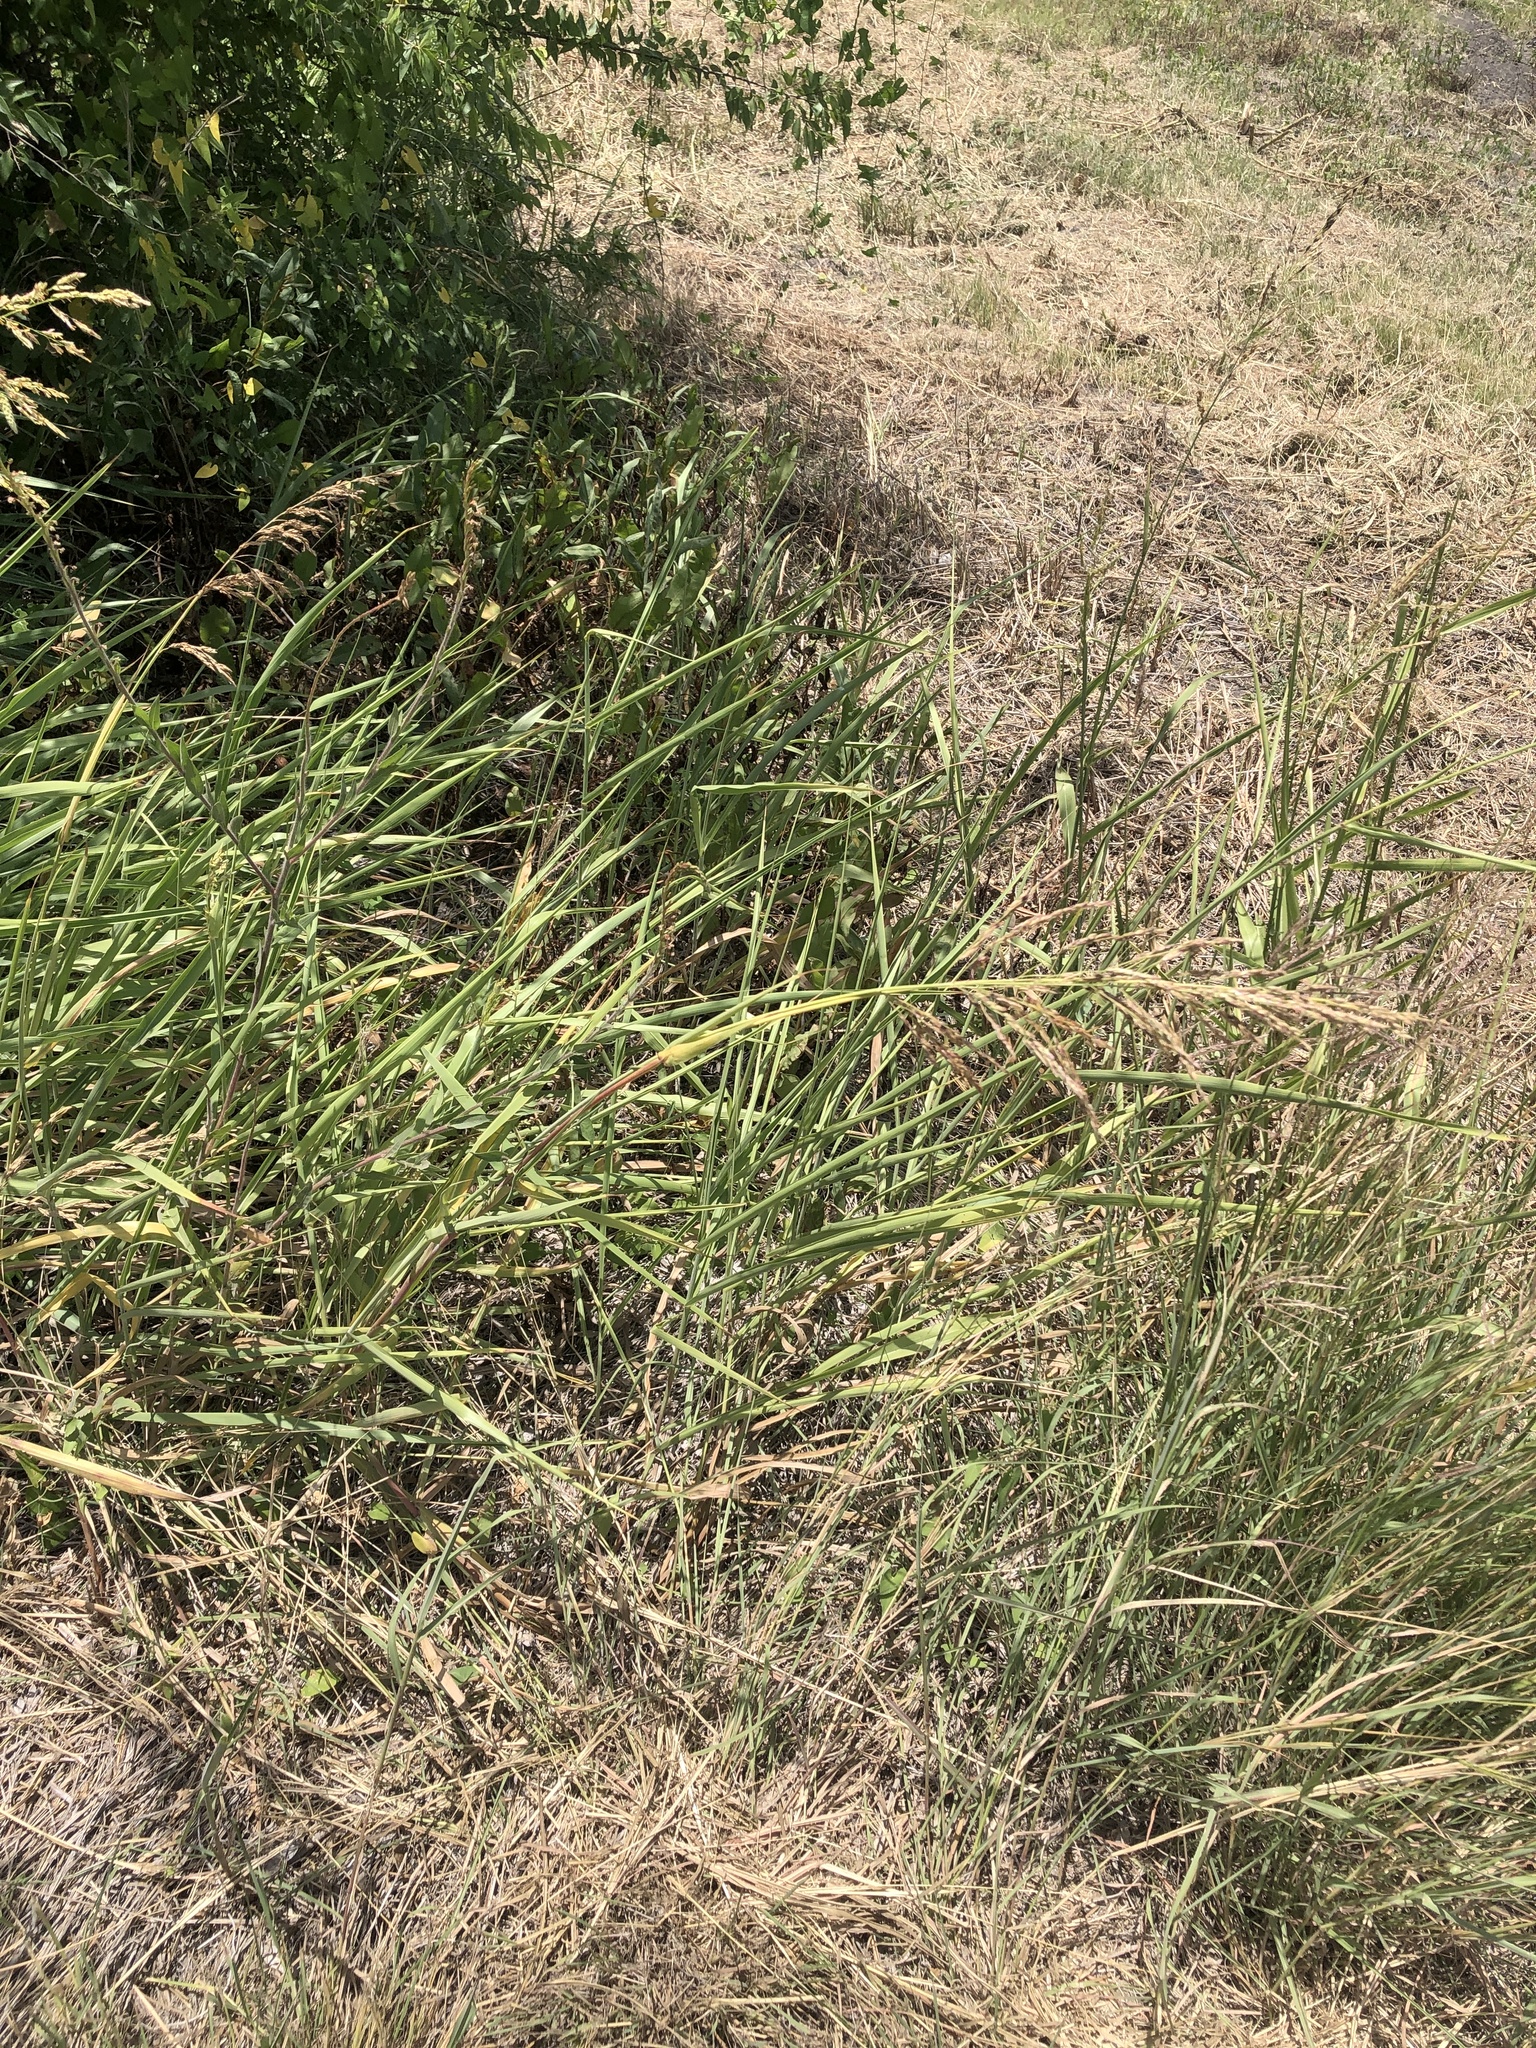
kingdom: Plantae
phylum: Tracheophyta
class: Liliopsida
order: Poales
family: Poaceae
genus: Sorghum
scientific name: Sorghum halepense
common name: Johnson-grass
